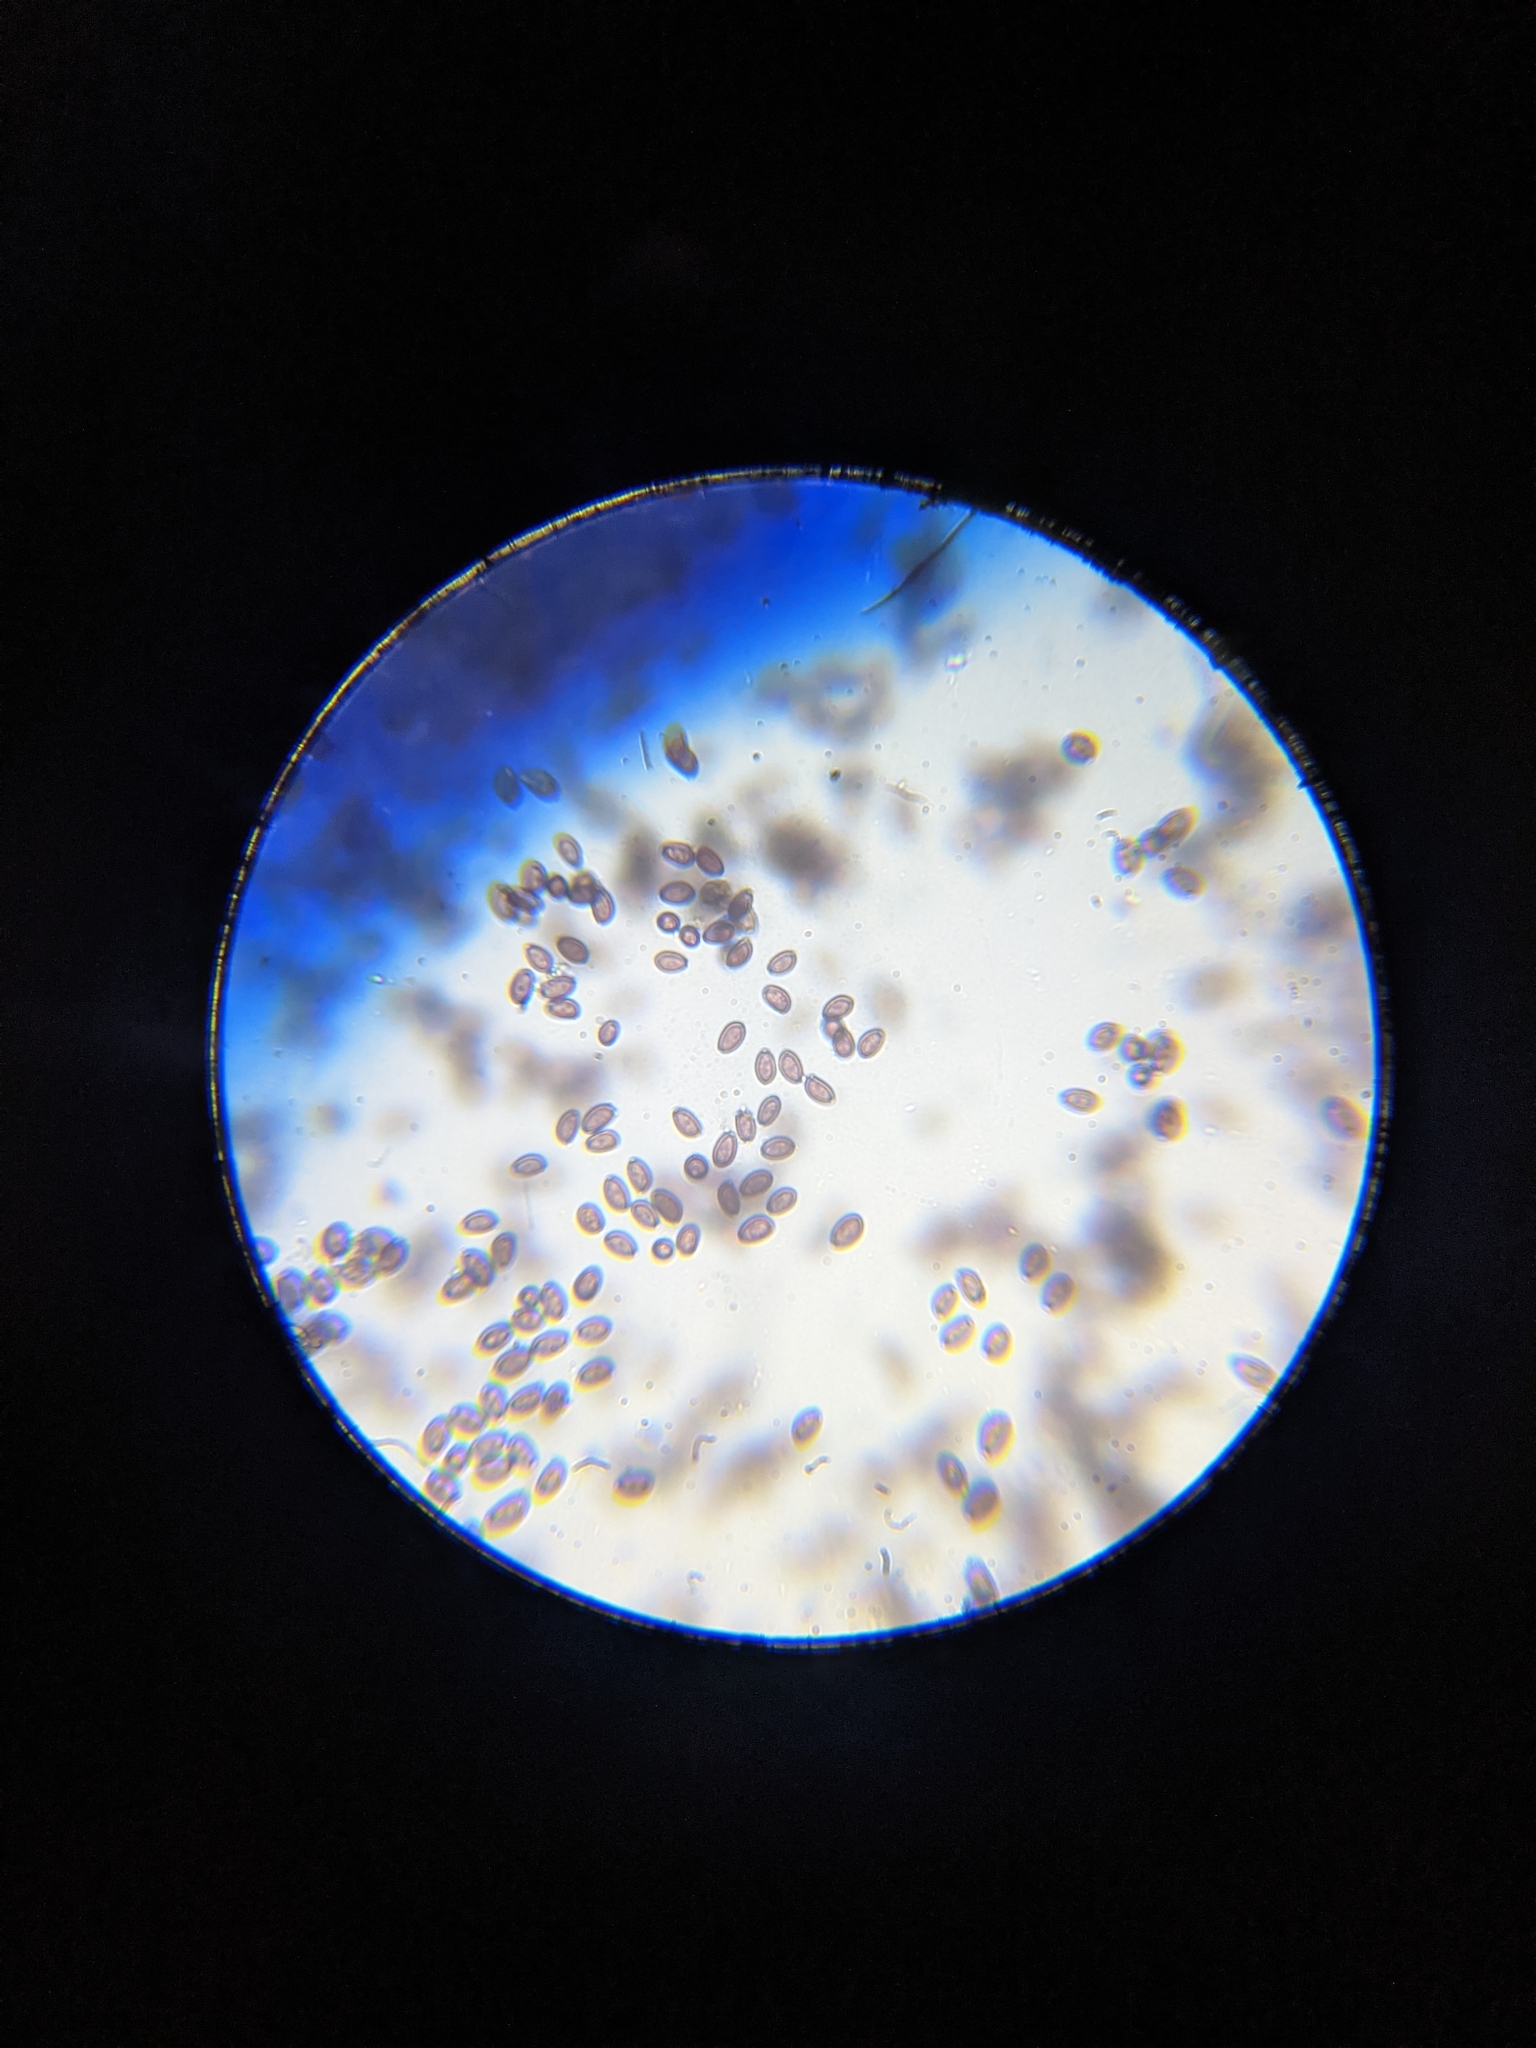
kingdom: Fungi
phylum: Basidiomycota
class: Agaricomycetes
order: Agaricales
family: Strophariaceae
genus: Stropharia
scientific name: Stropharia rugosoannulata
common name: Wine roundhead
